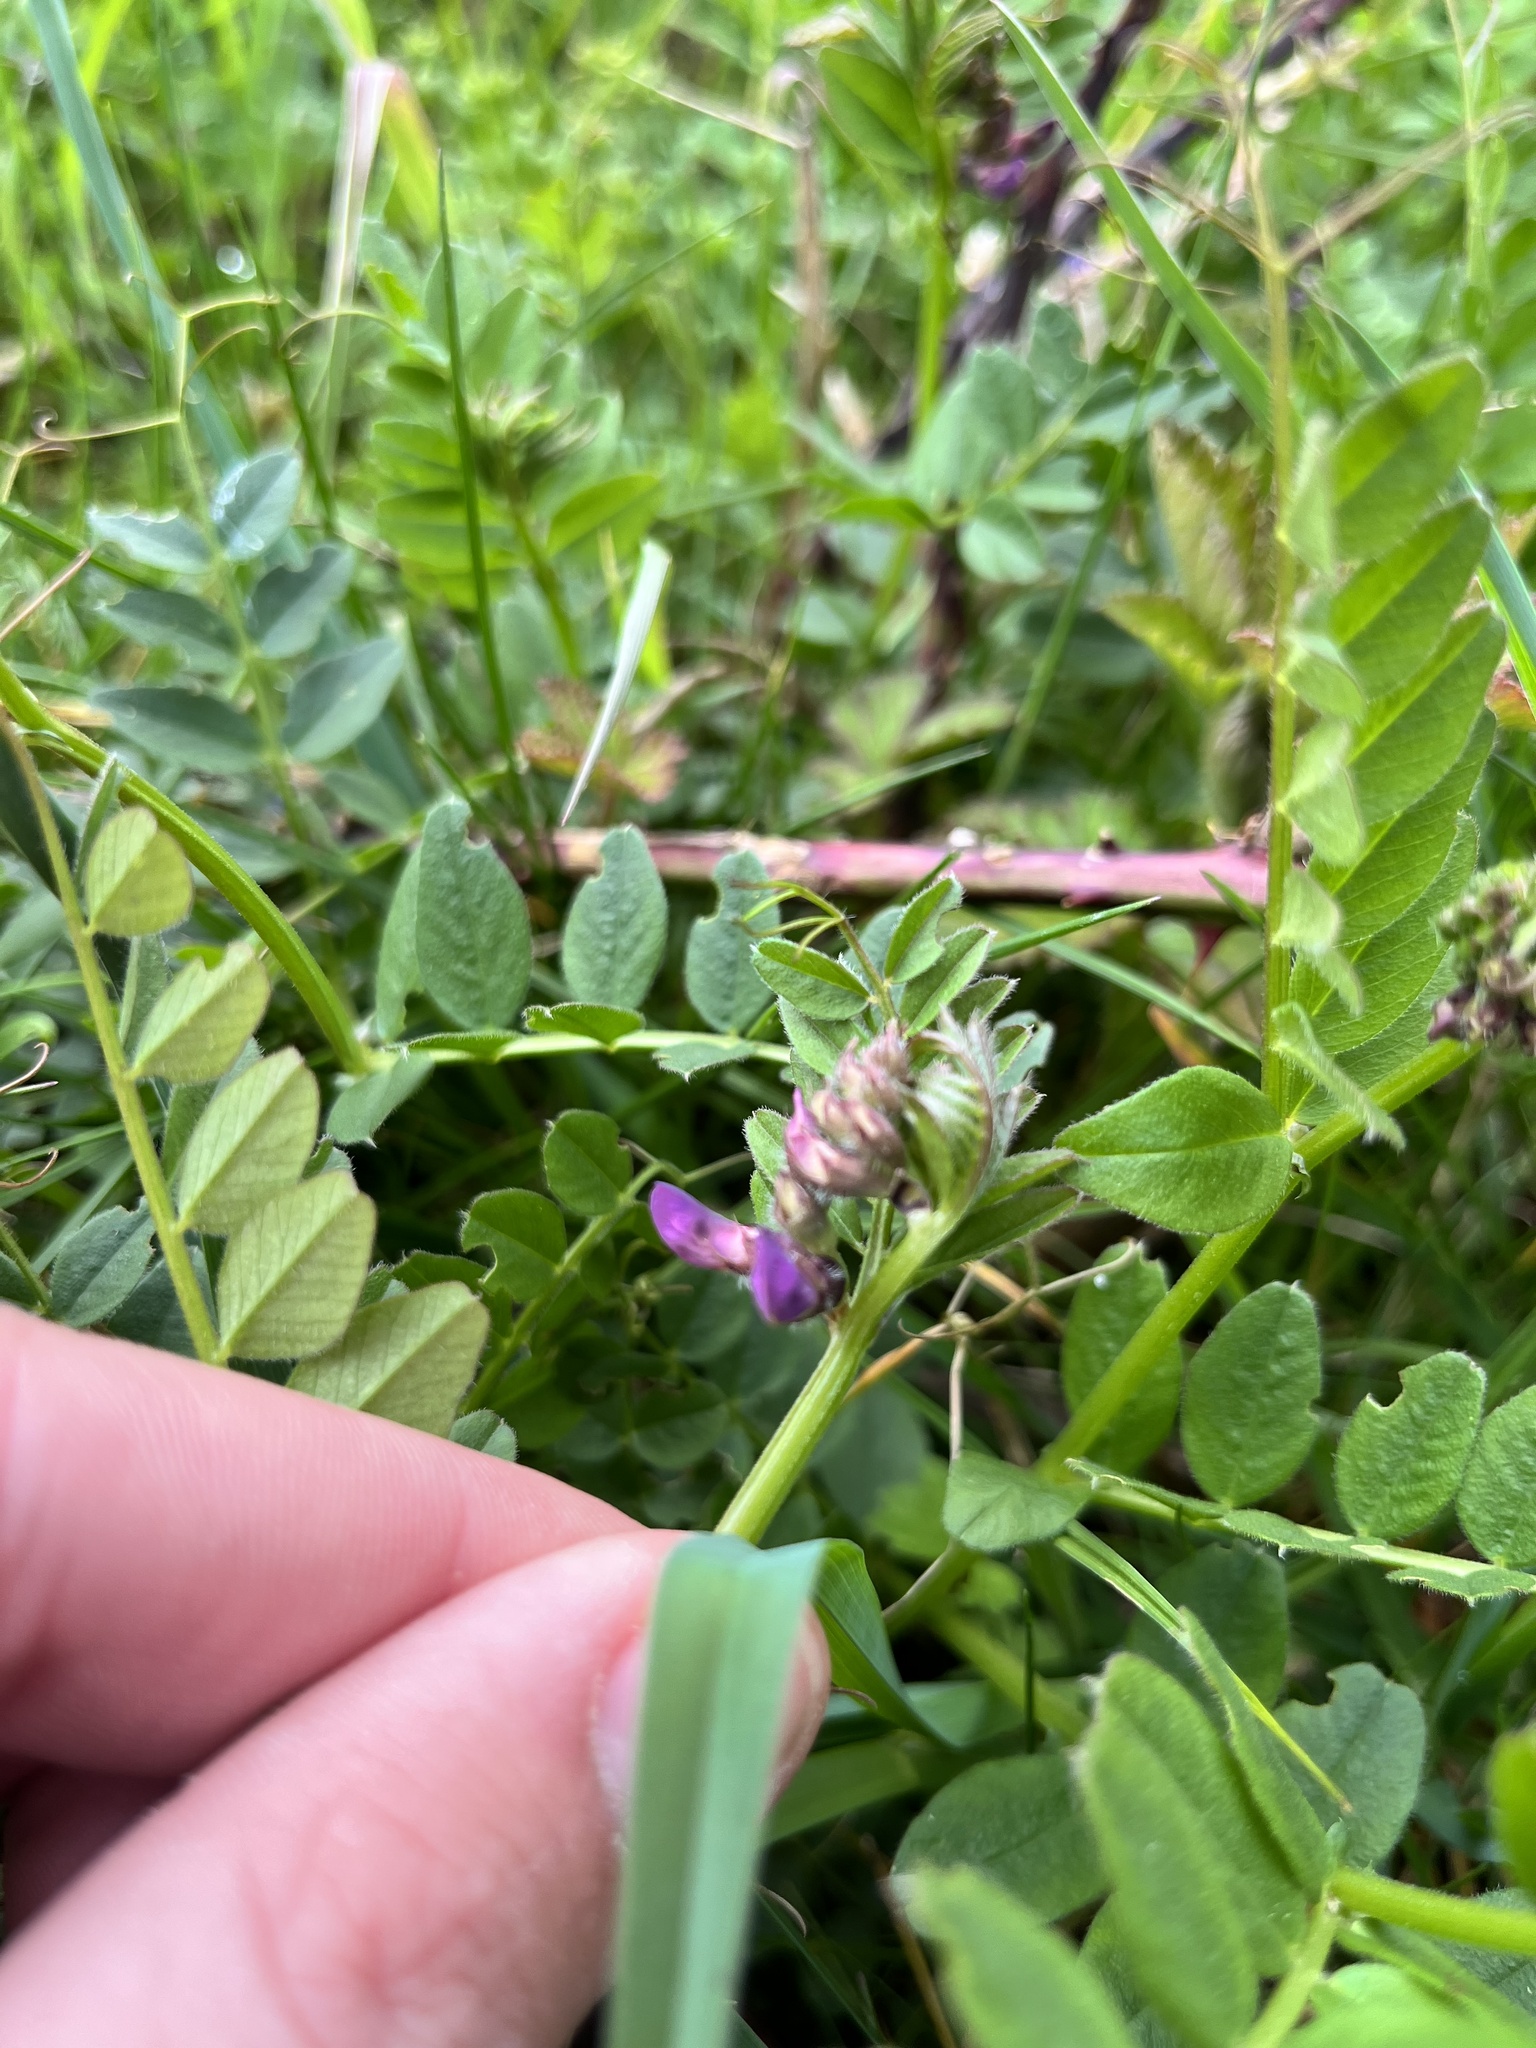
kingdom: Plantae
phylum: Tracheophyta
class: Magnoliopsida
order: Fabales
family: Fabaceae
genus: Vicia
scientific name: Vicia sepium
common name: Bush vetch
